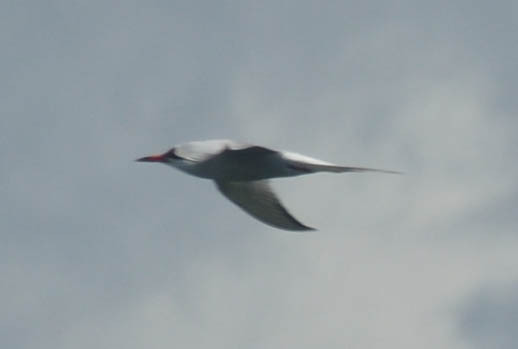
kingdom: Animalia
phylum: Chordata
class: Aves
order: Charadriiformes
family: Laridae
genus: Sterna
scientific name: Sterna hirundo
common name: Common tern
